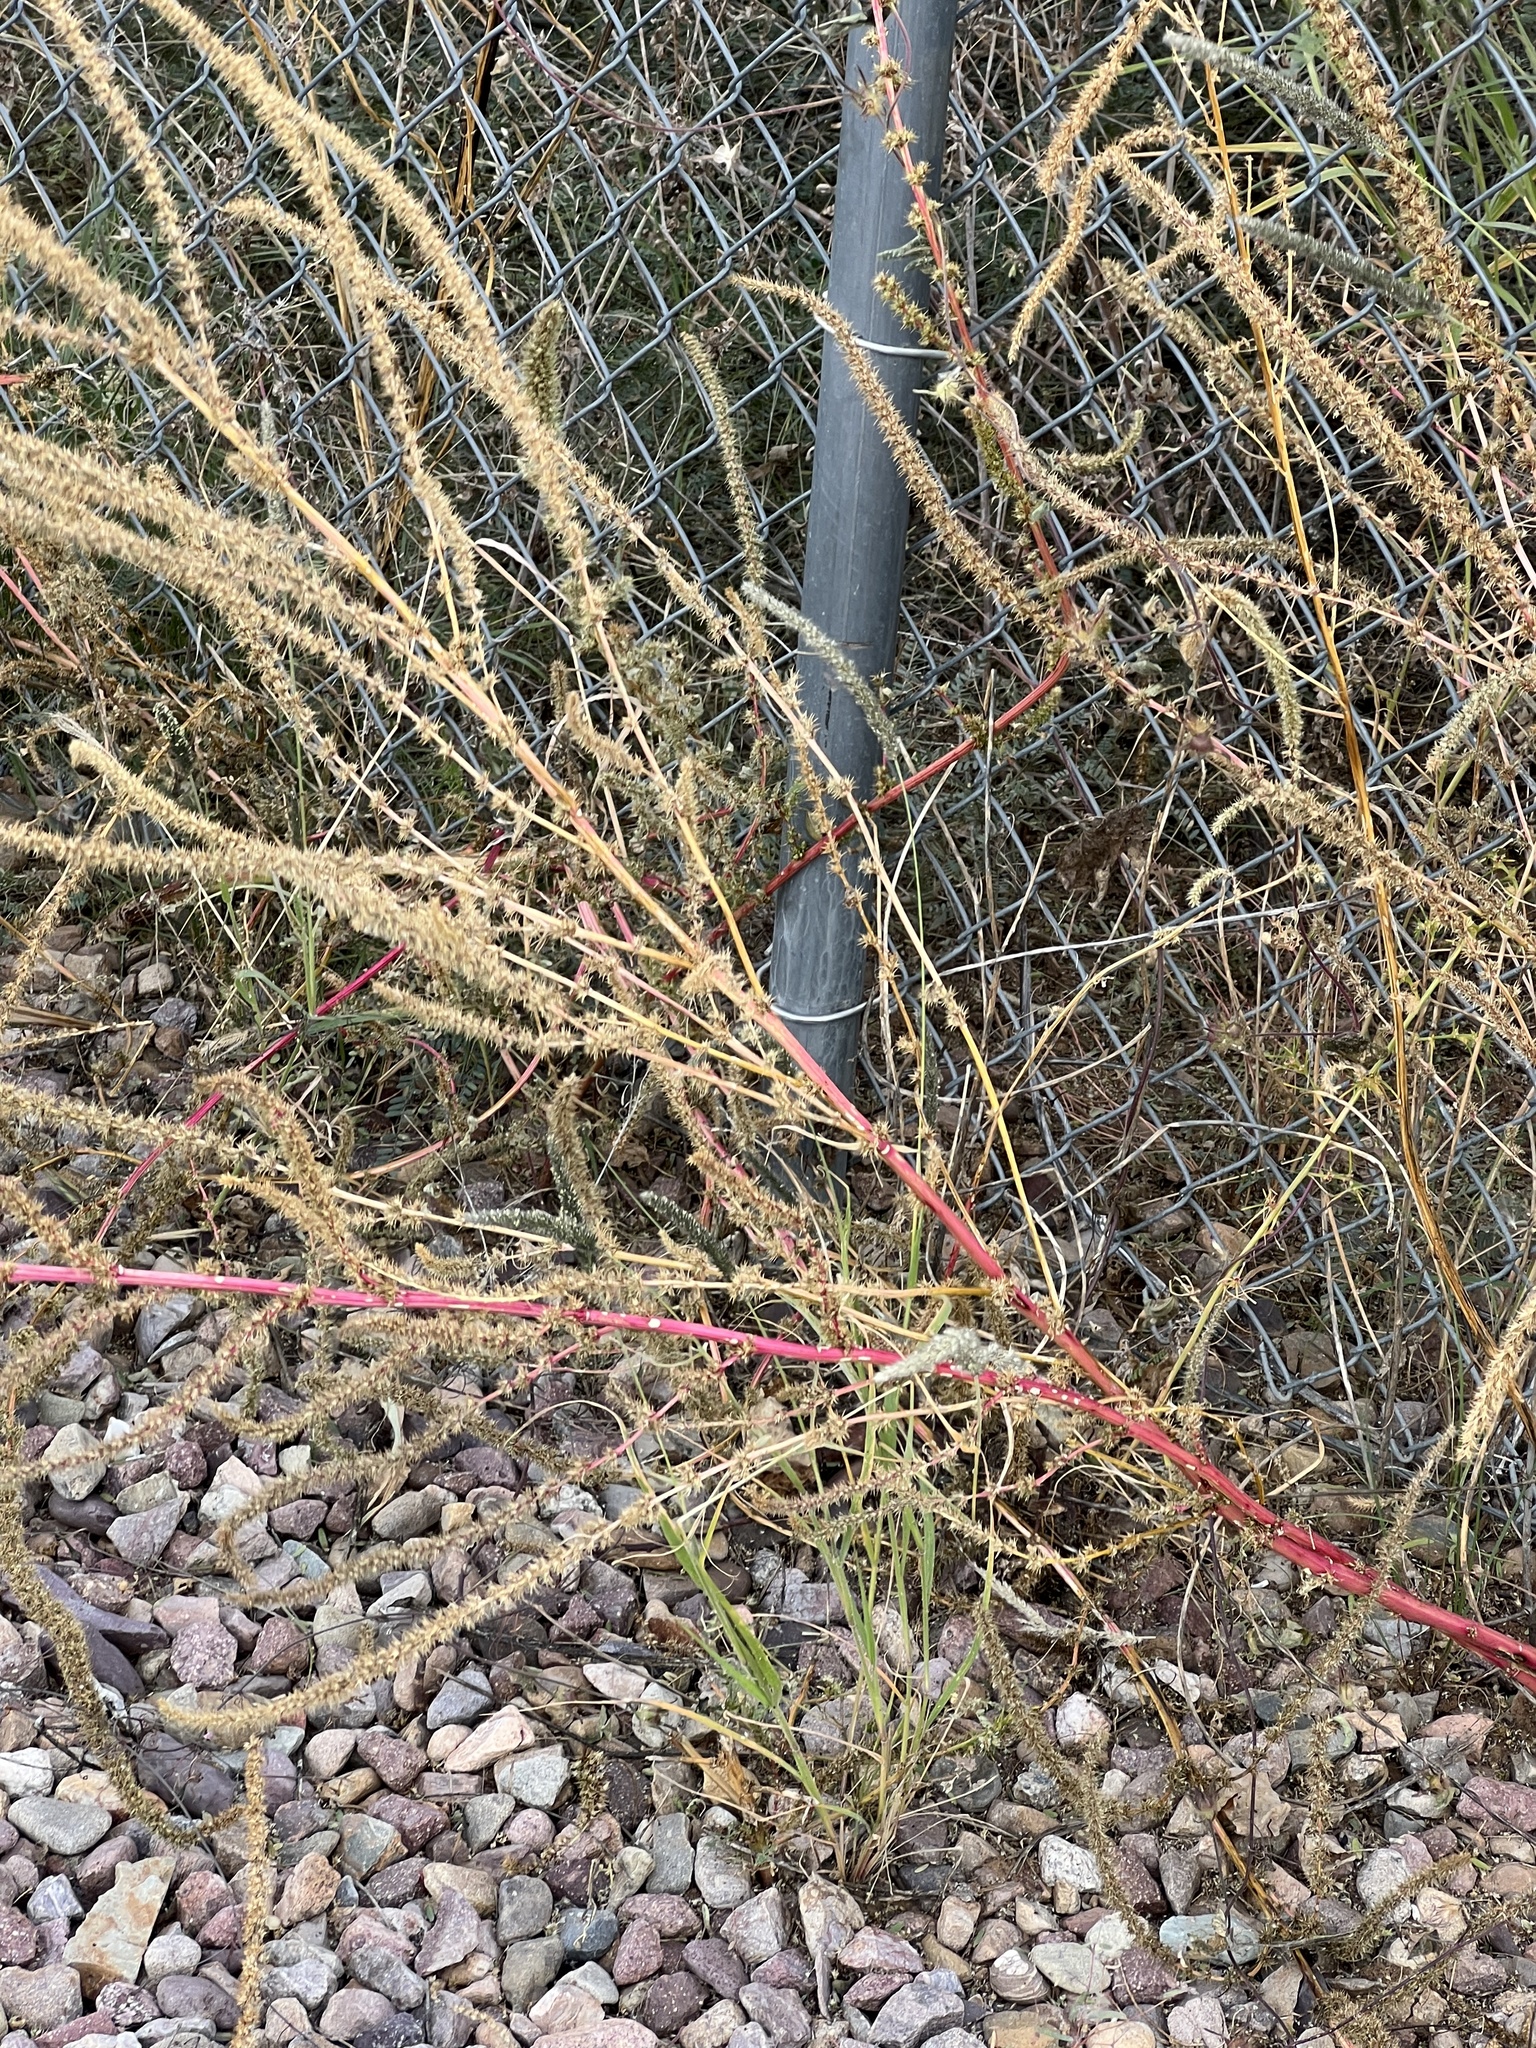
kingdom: Plantae
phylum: Tracheophyta
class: Magnoliopsida
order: Caryophyllales
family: Amaranthaceae
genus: Amaranthus
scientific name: Amaranthus palmeri
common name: Dioecious amaranth
